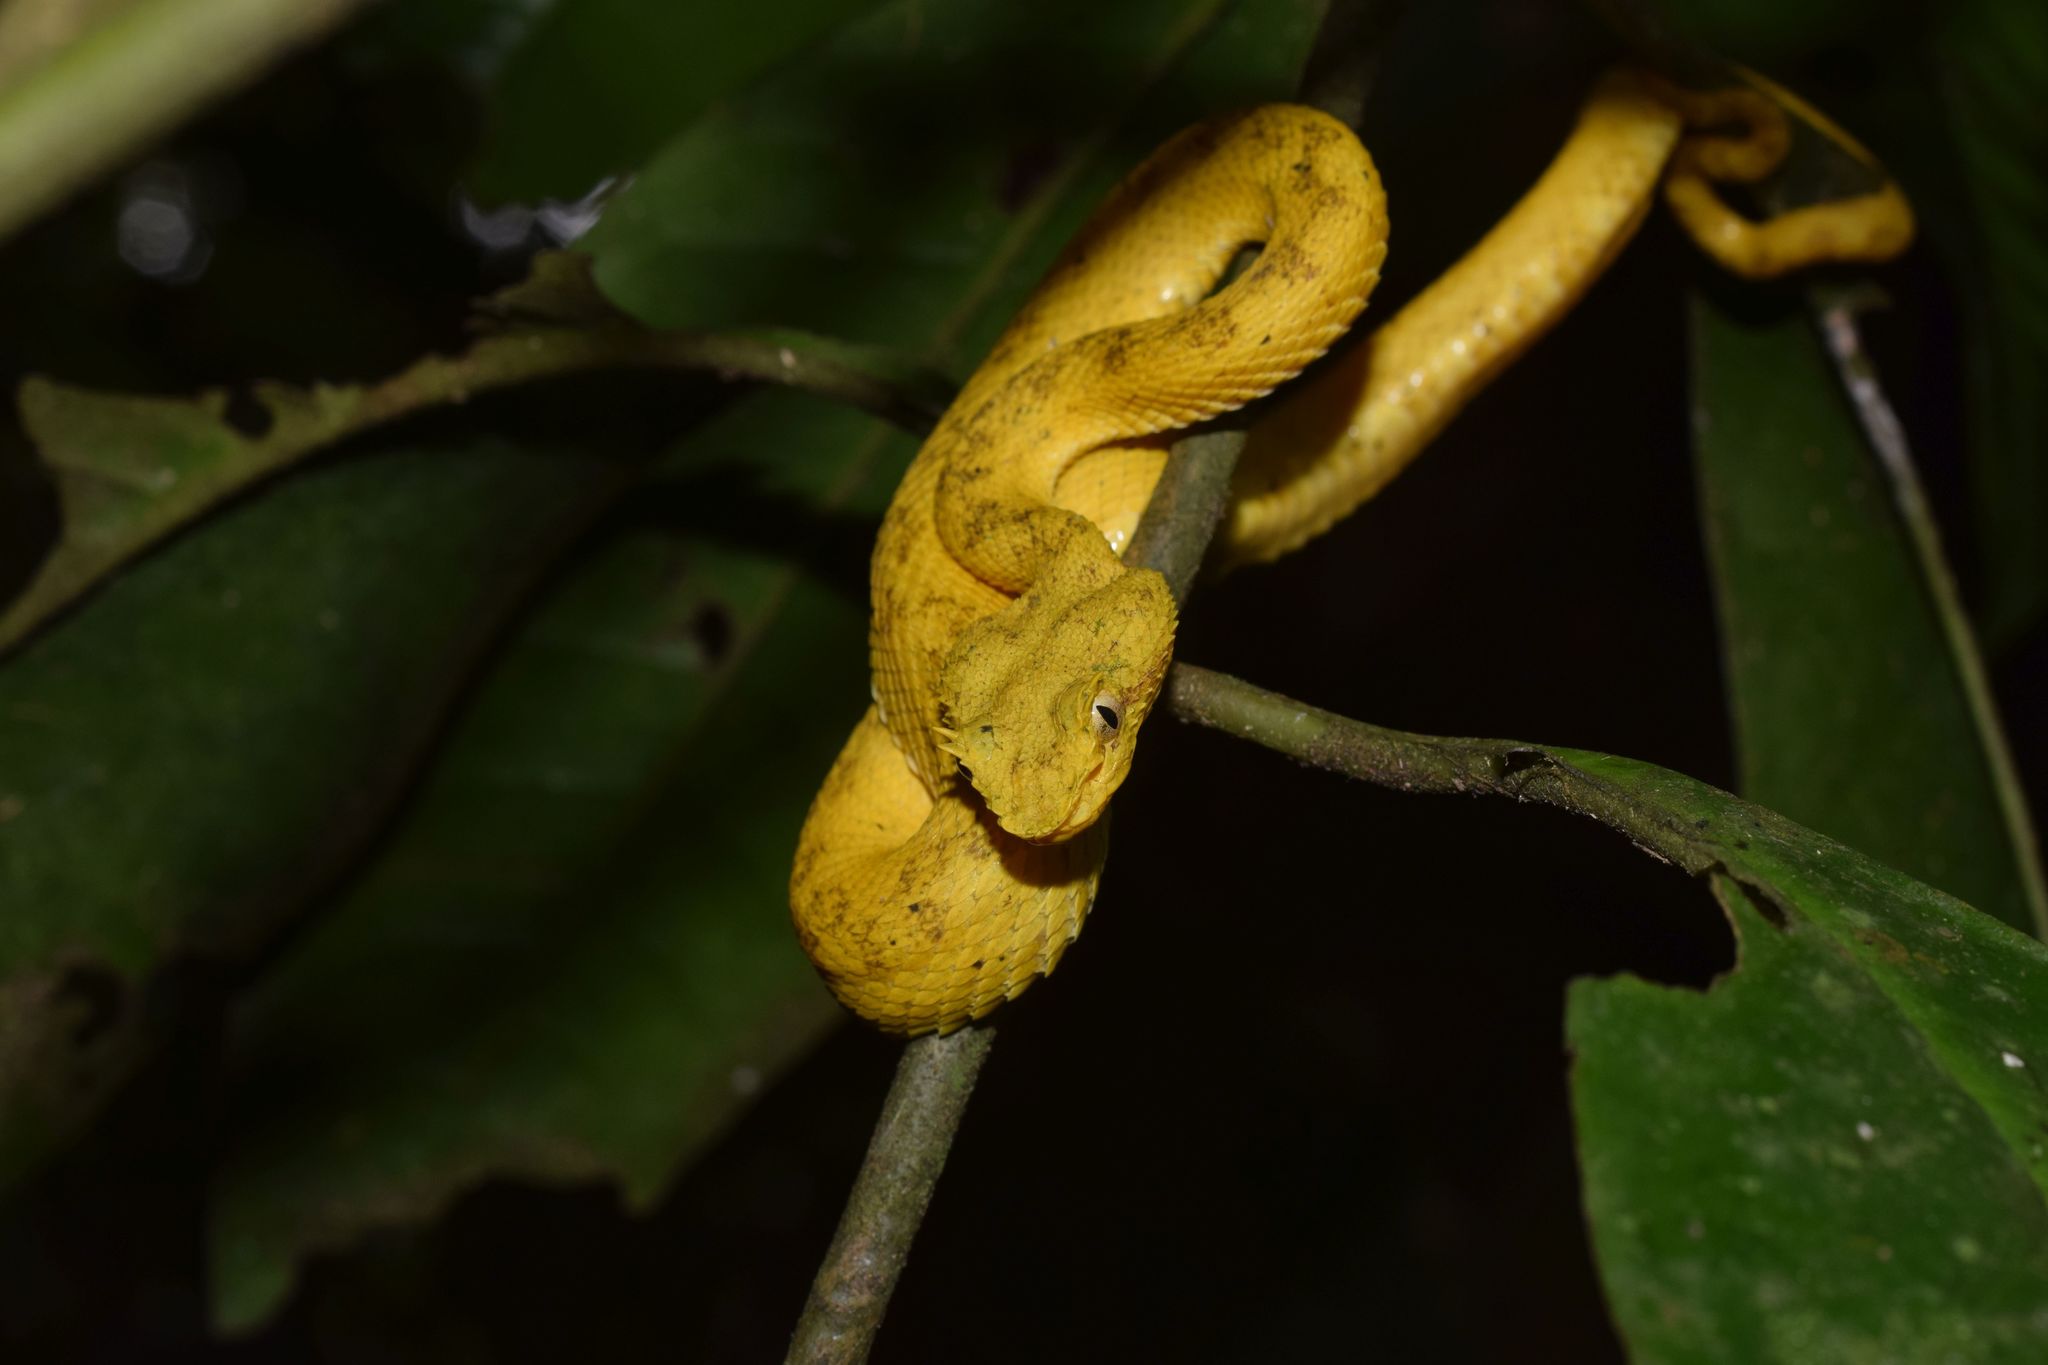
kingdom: Animalia
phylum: Chordata
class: Squamata
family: Viperidae
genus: Bothriechis
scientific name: Bothriechis schlegelii
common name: Eyelash viper
